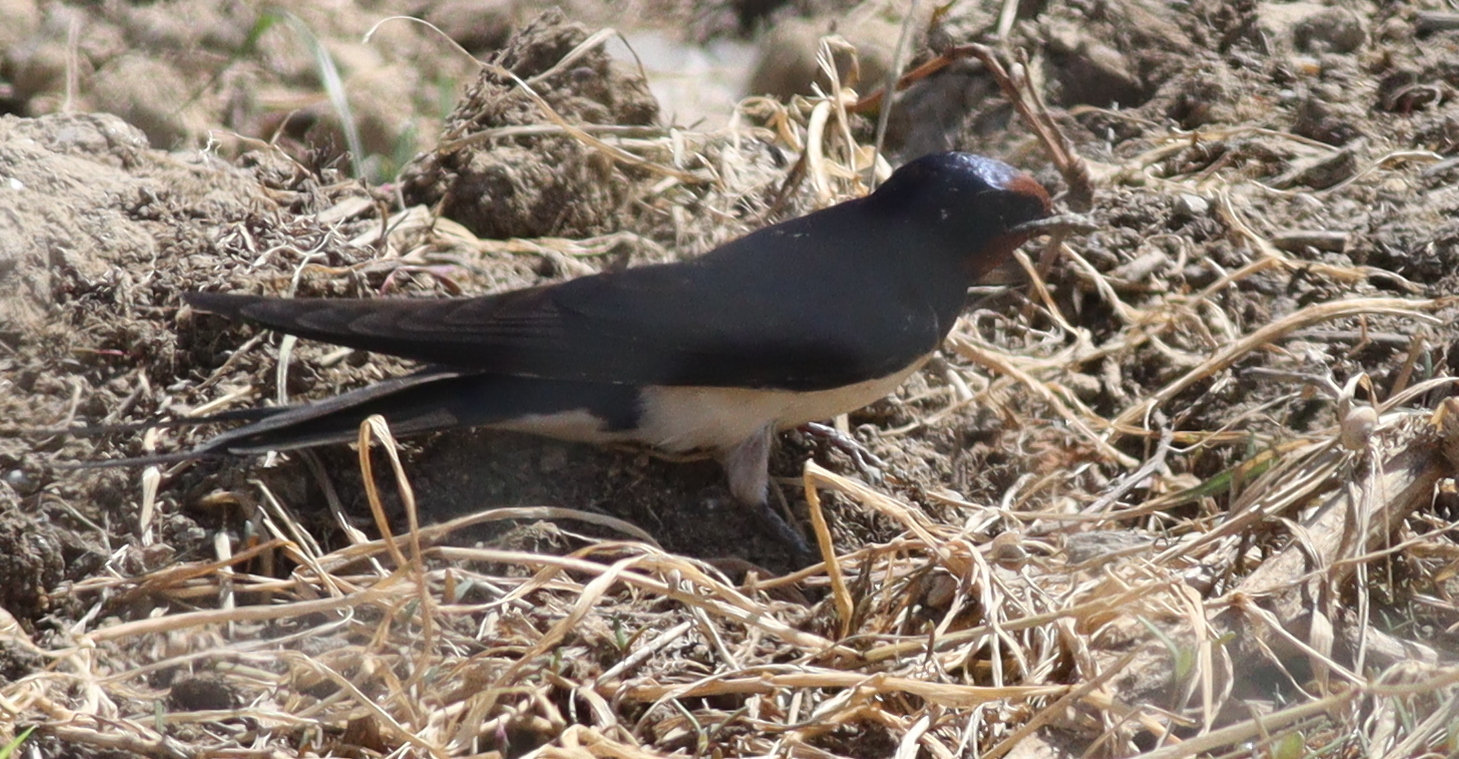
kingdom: Animalia
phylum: Chordata
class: Aves
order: Passeriformes
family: Hirundinidae
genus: Hirundo
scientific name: Hirundo rustica
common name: Barn swallow
